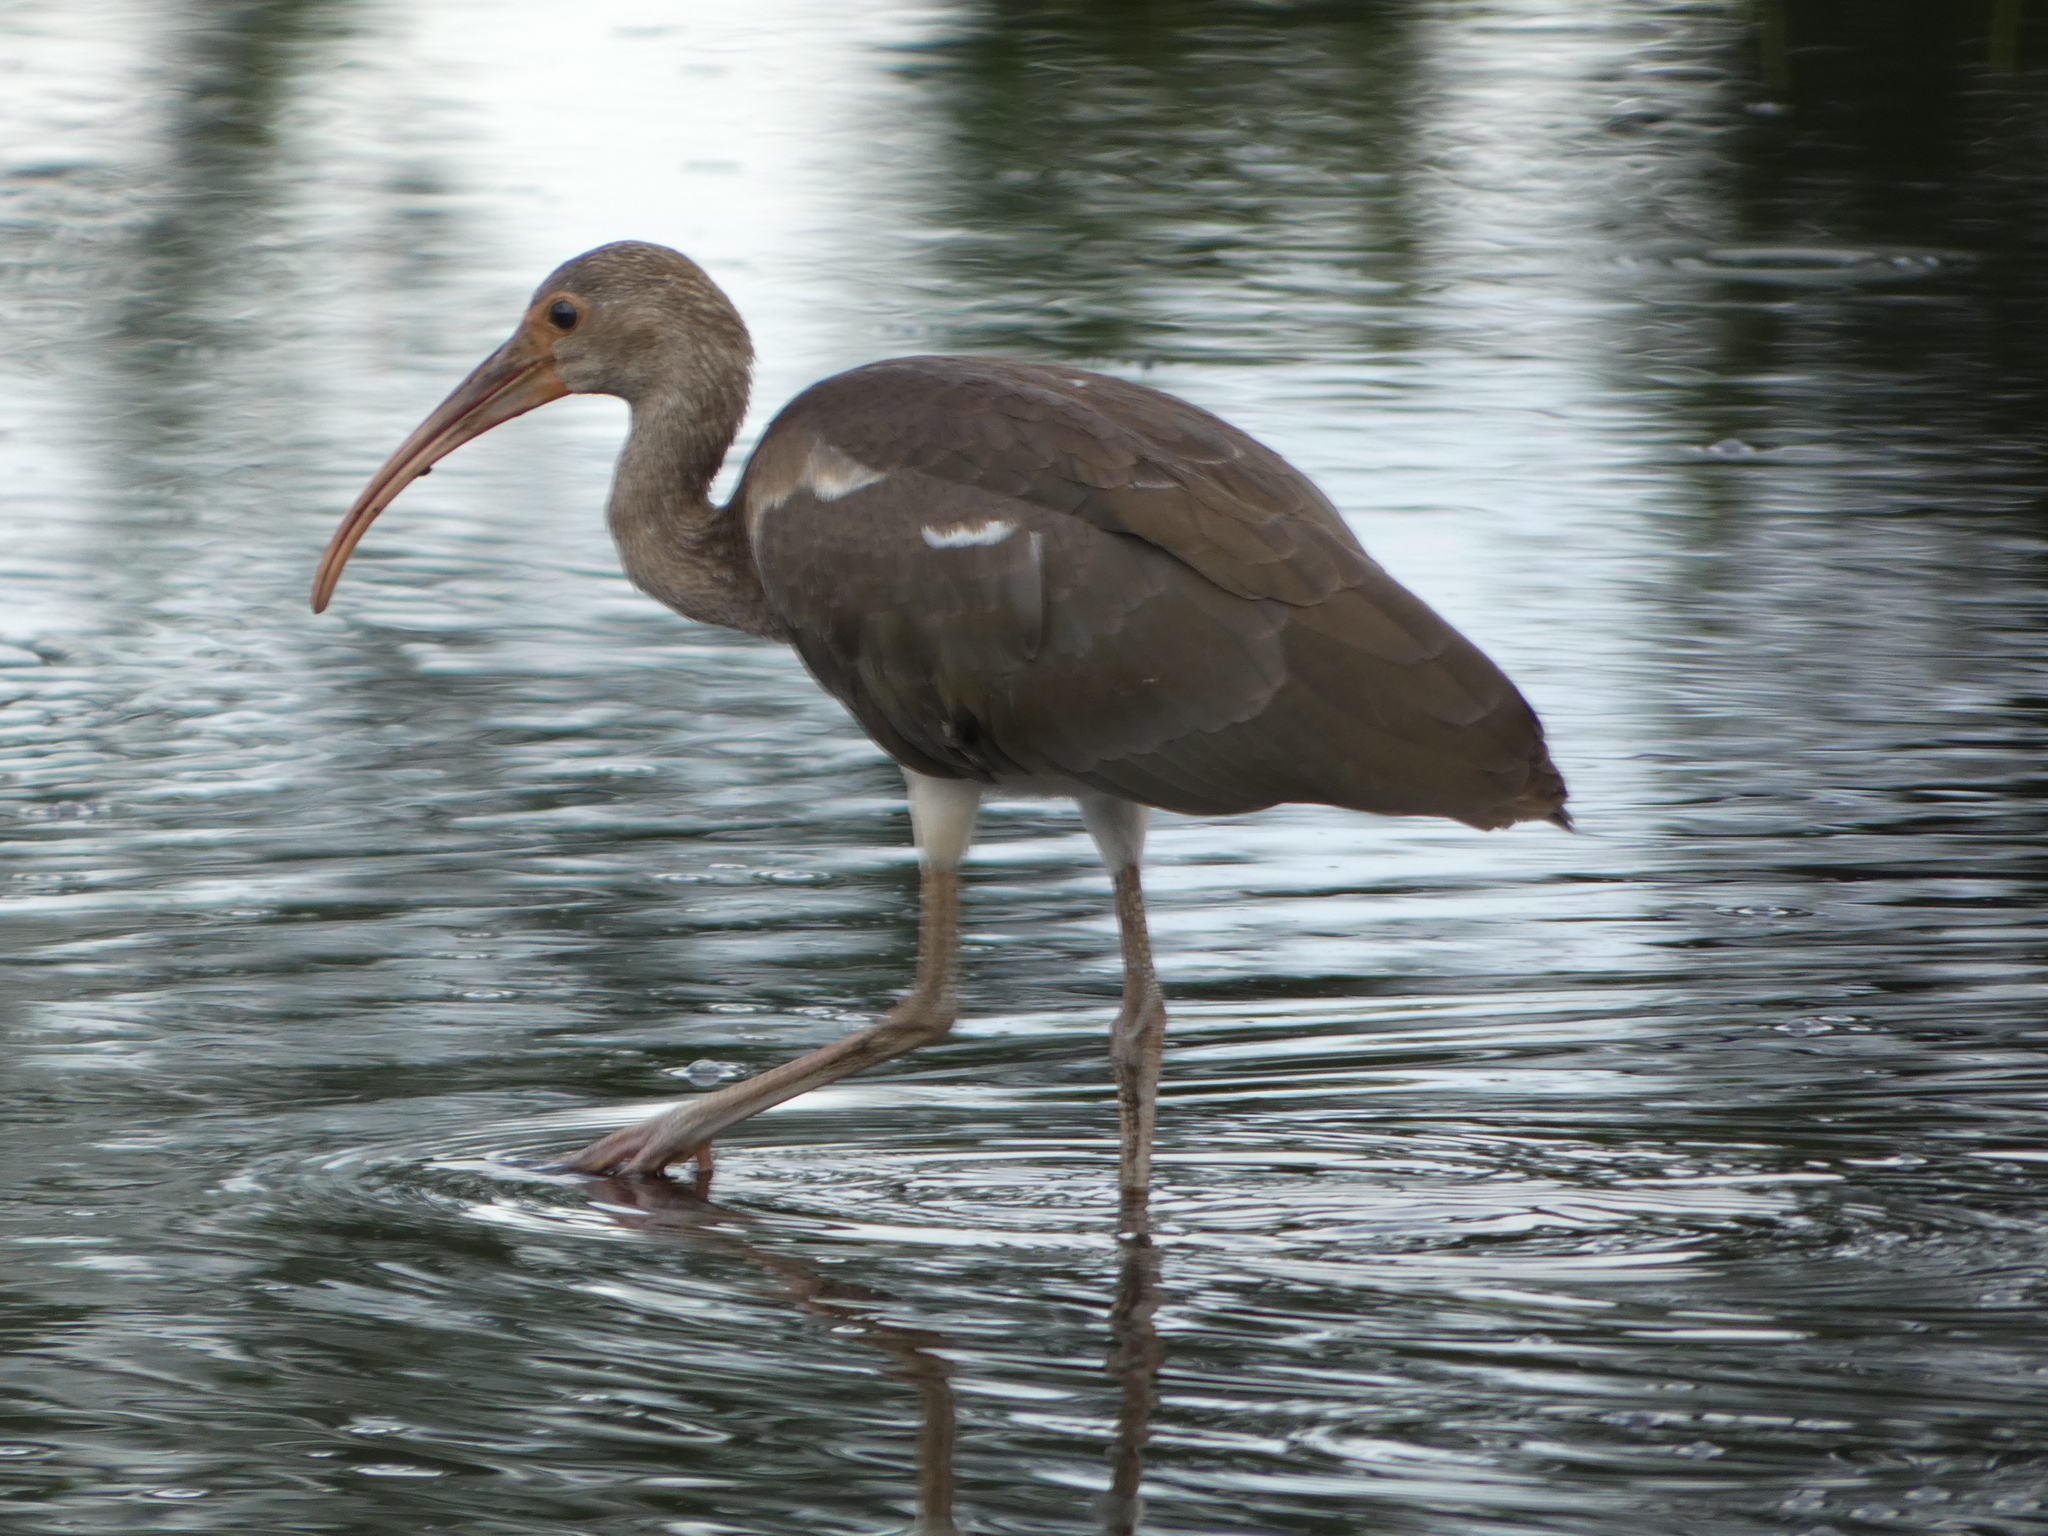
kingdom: Animalia
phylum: Chordata
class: Aves
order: Pelecaniformes
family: Threskiornithidae
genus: Eudocimus
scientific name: Eudocimus albus
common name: White ibis
